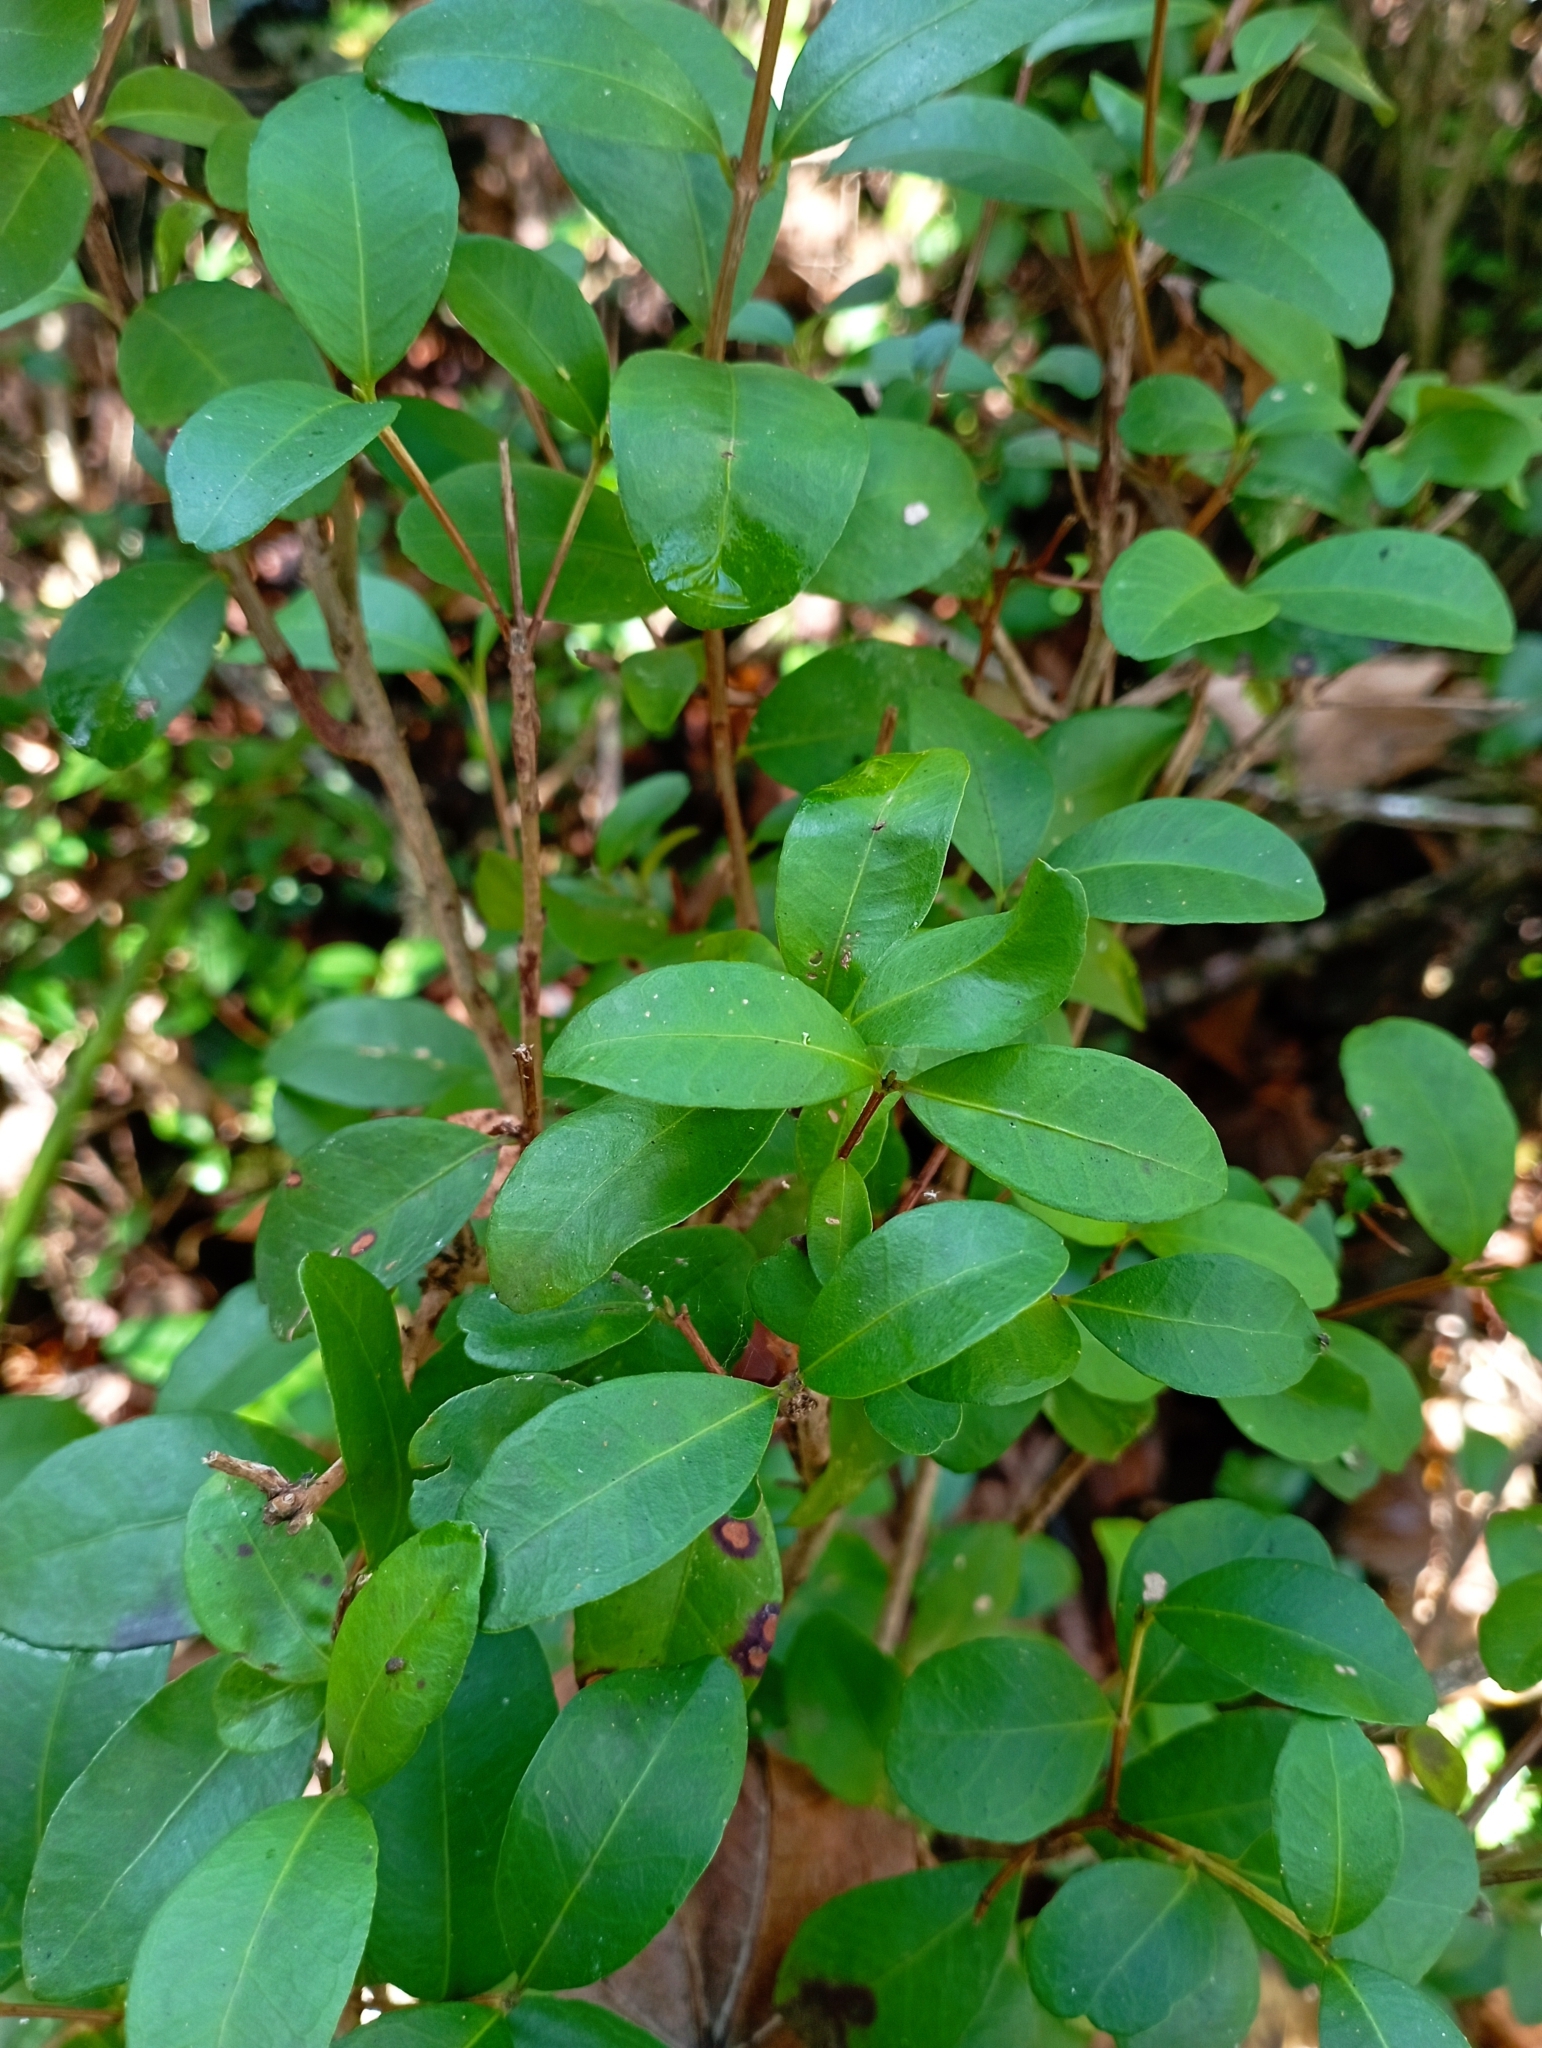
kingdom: Plantae
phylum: Tracheophyta
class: Magnoliopsida
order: Myrtales
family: Myrtaceae
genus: Blepharocalyx
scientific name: Blepharocalyx cruckshanksii
